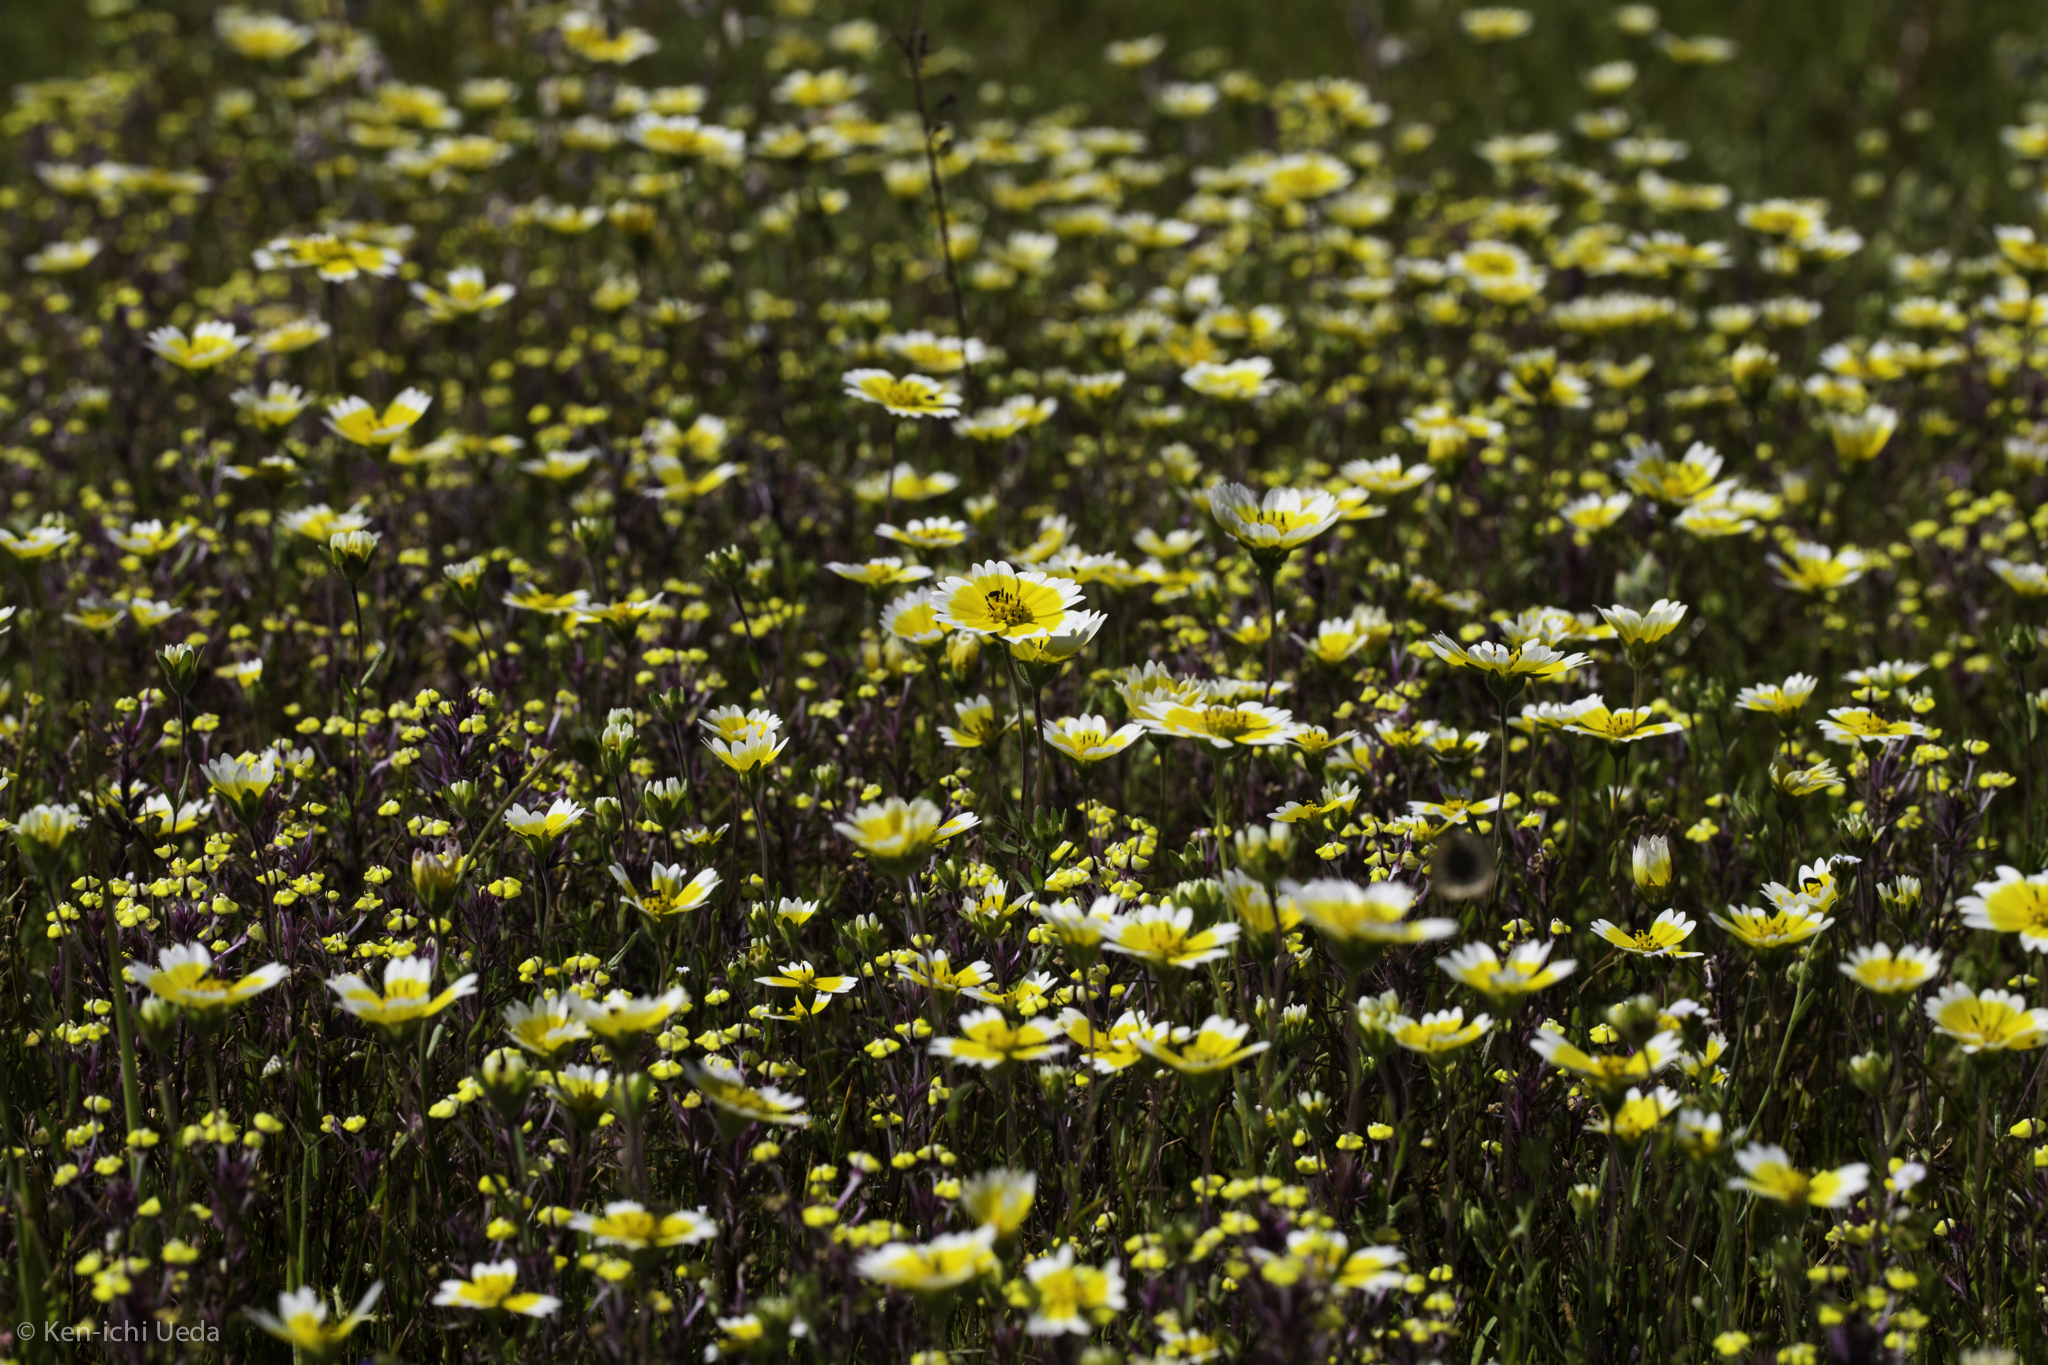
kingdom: Plantae
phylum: Tracheophyta
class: Magnoliopsida
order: Asterales
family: Asteraceae
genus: Layia
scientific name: Layia fremontii
